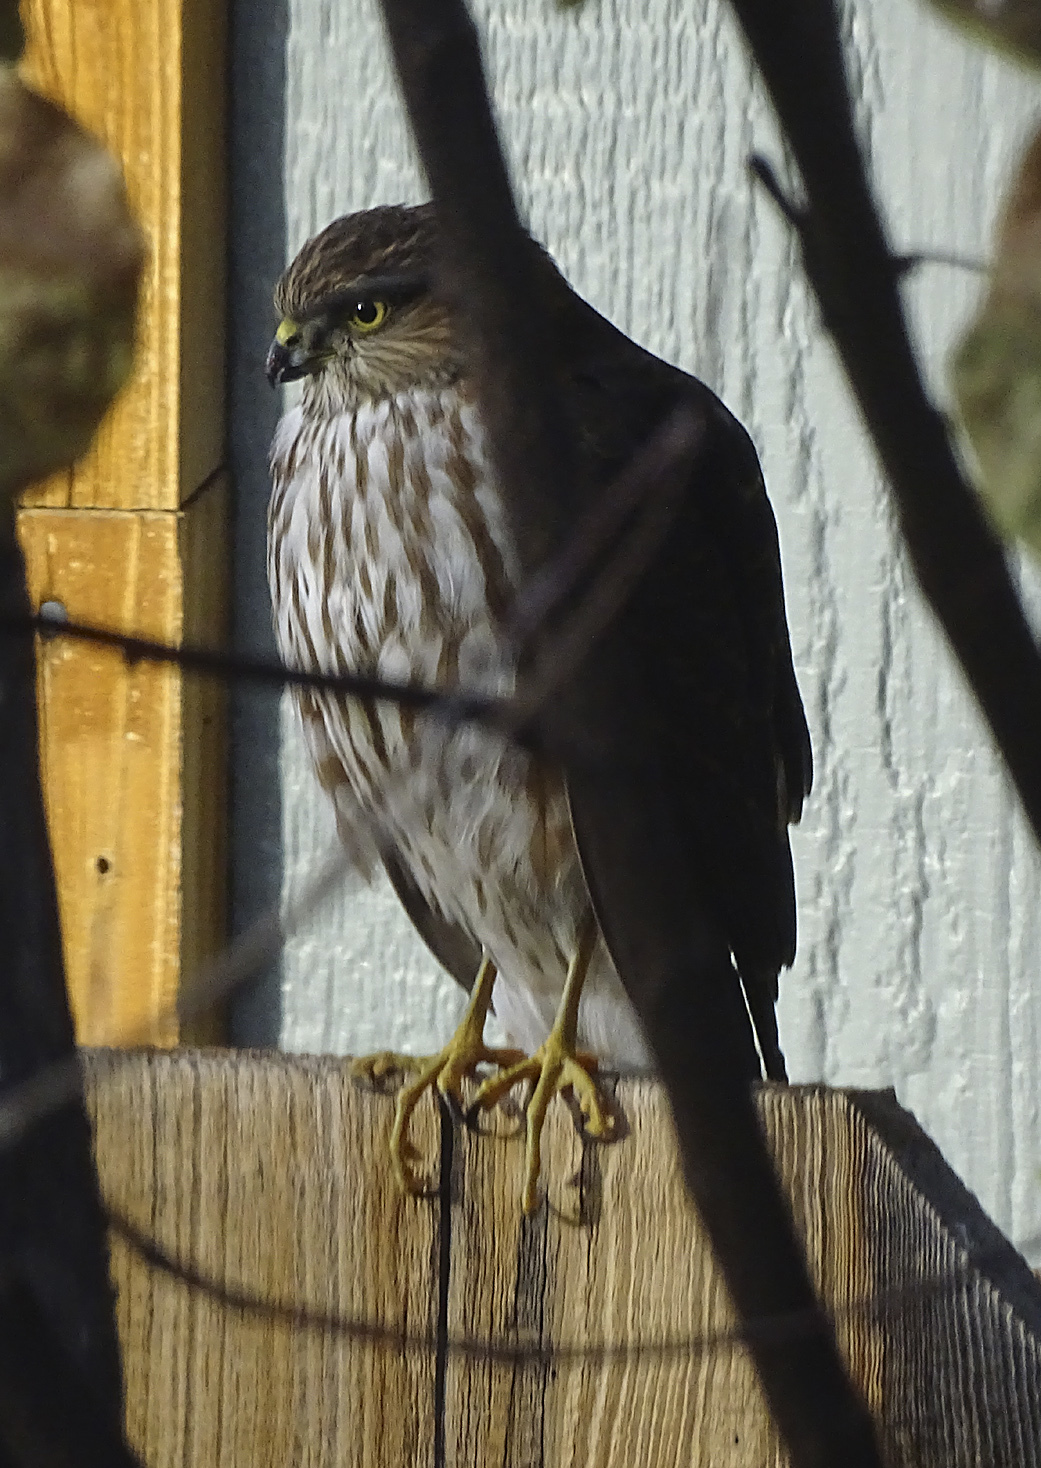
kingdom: Animalia
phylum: Chordata
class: Aves
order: Accipitriformes
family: Accipitridae
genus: Accipiter
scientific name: Accipiter striatus
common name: Sharp-shinned hawk
